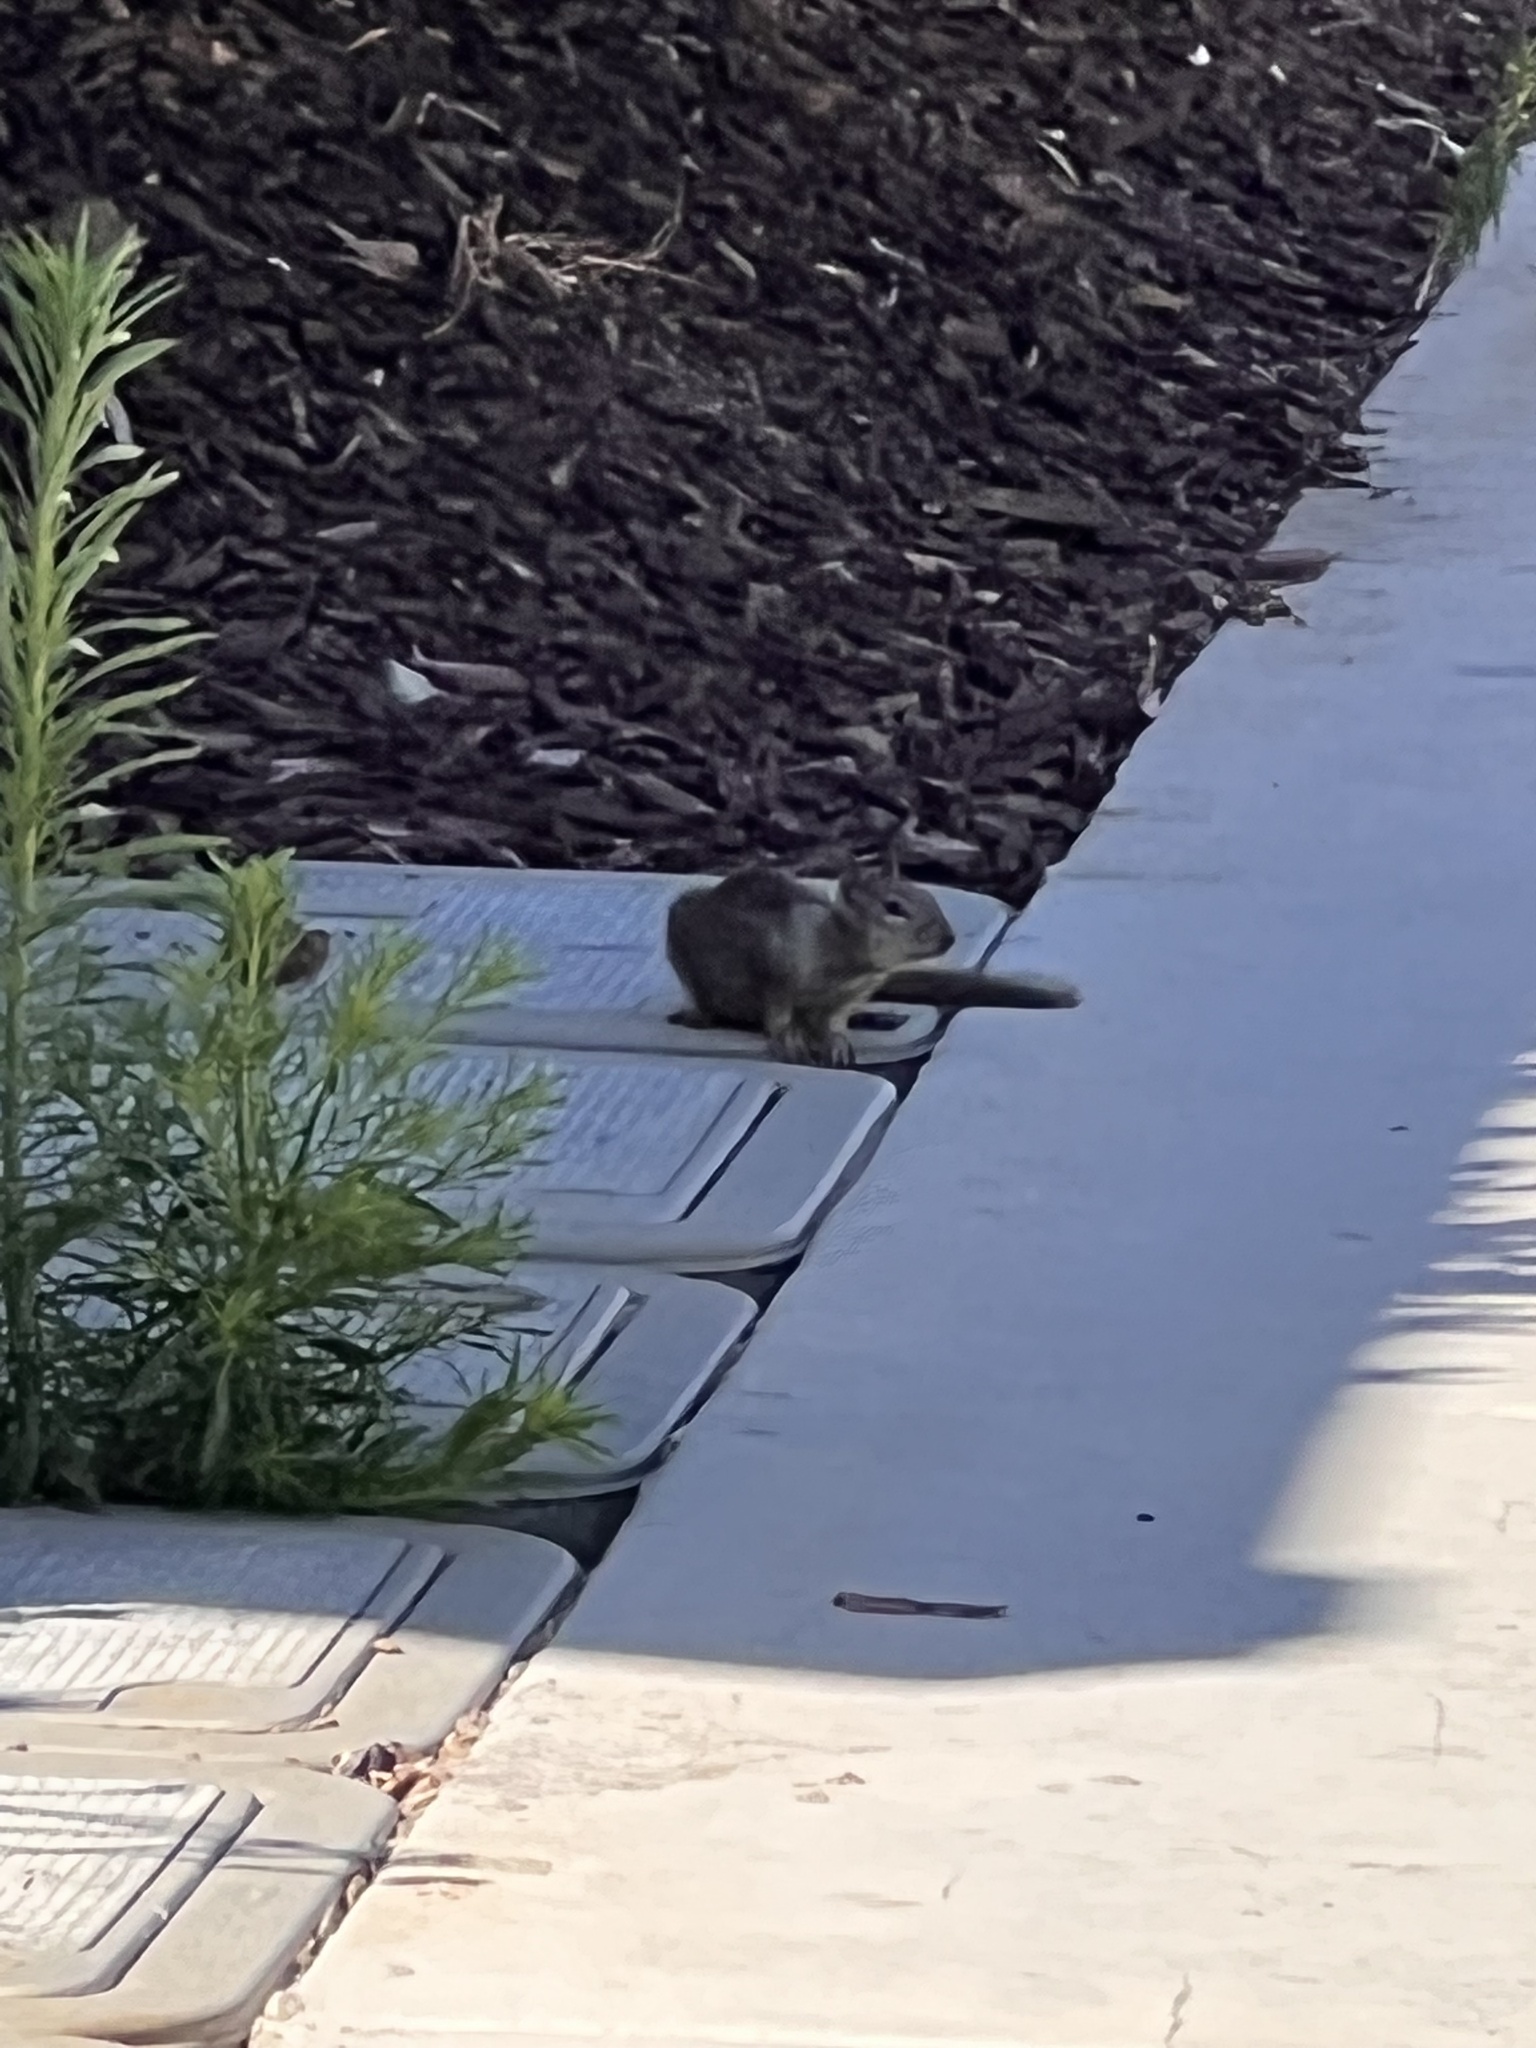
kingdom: Animalia
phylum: Chordata
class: Mammalia
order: Rodentia
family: Sciuridae
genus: Otospermophilus
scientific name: Otospermophilus beecheyi
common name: California ground squirrel
